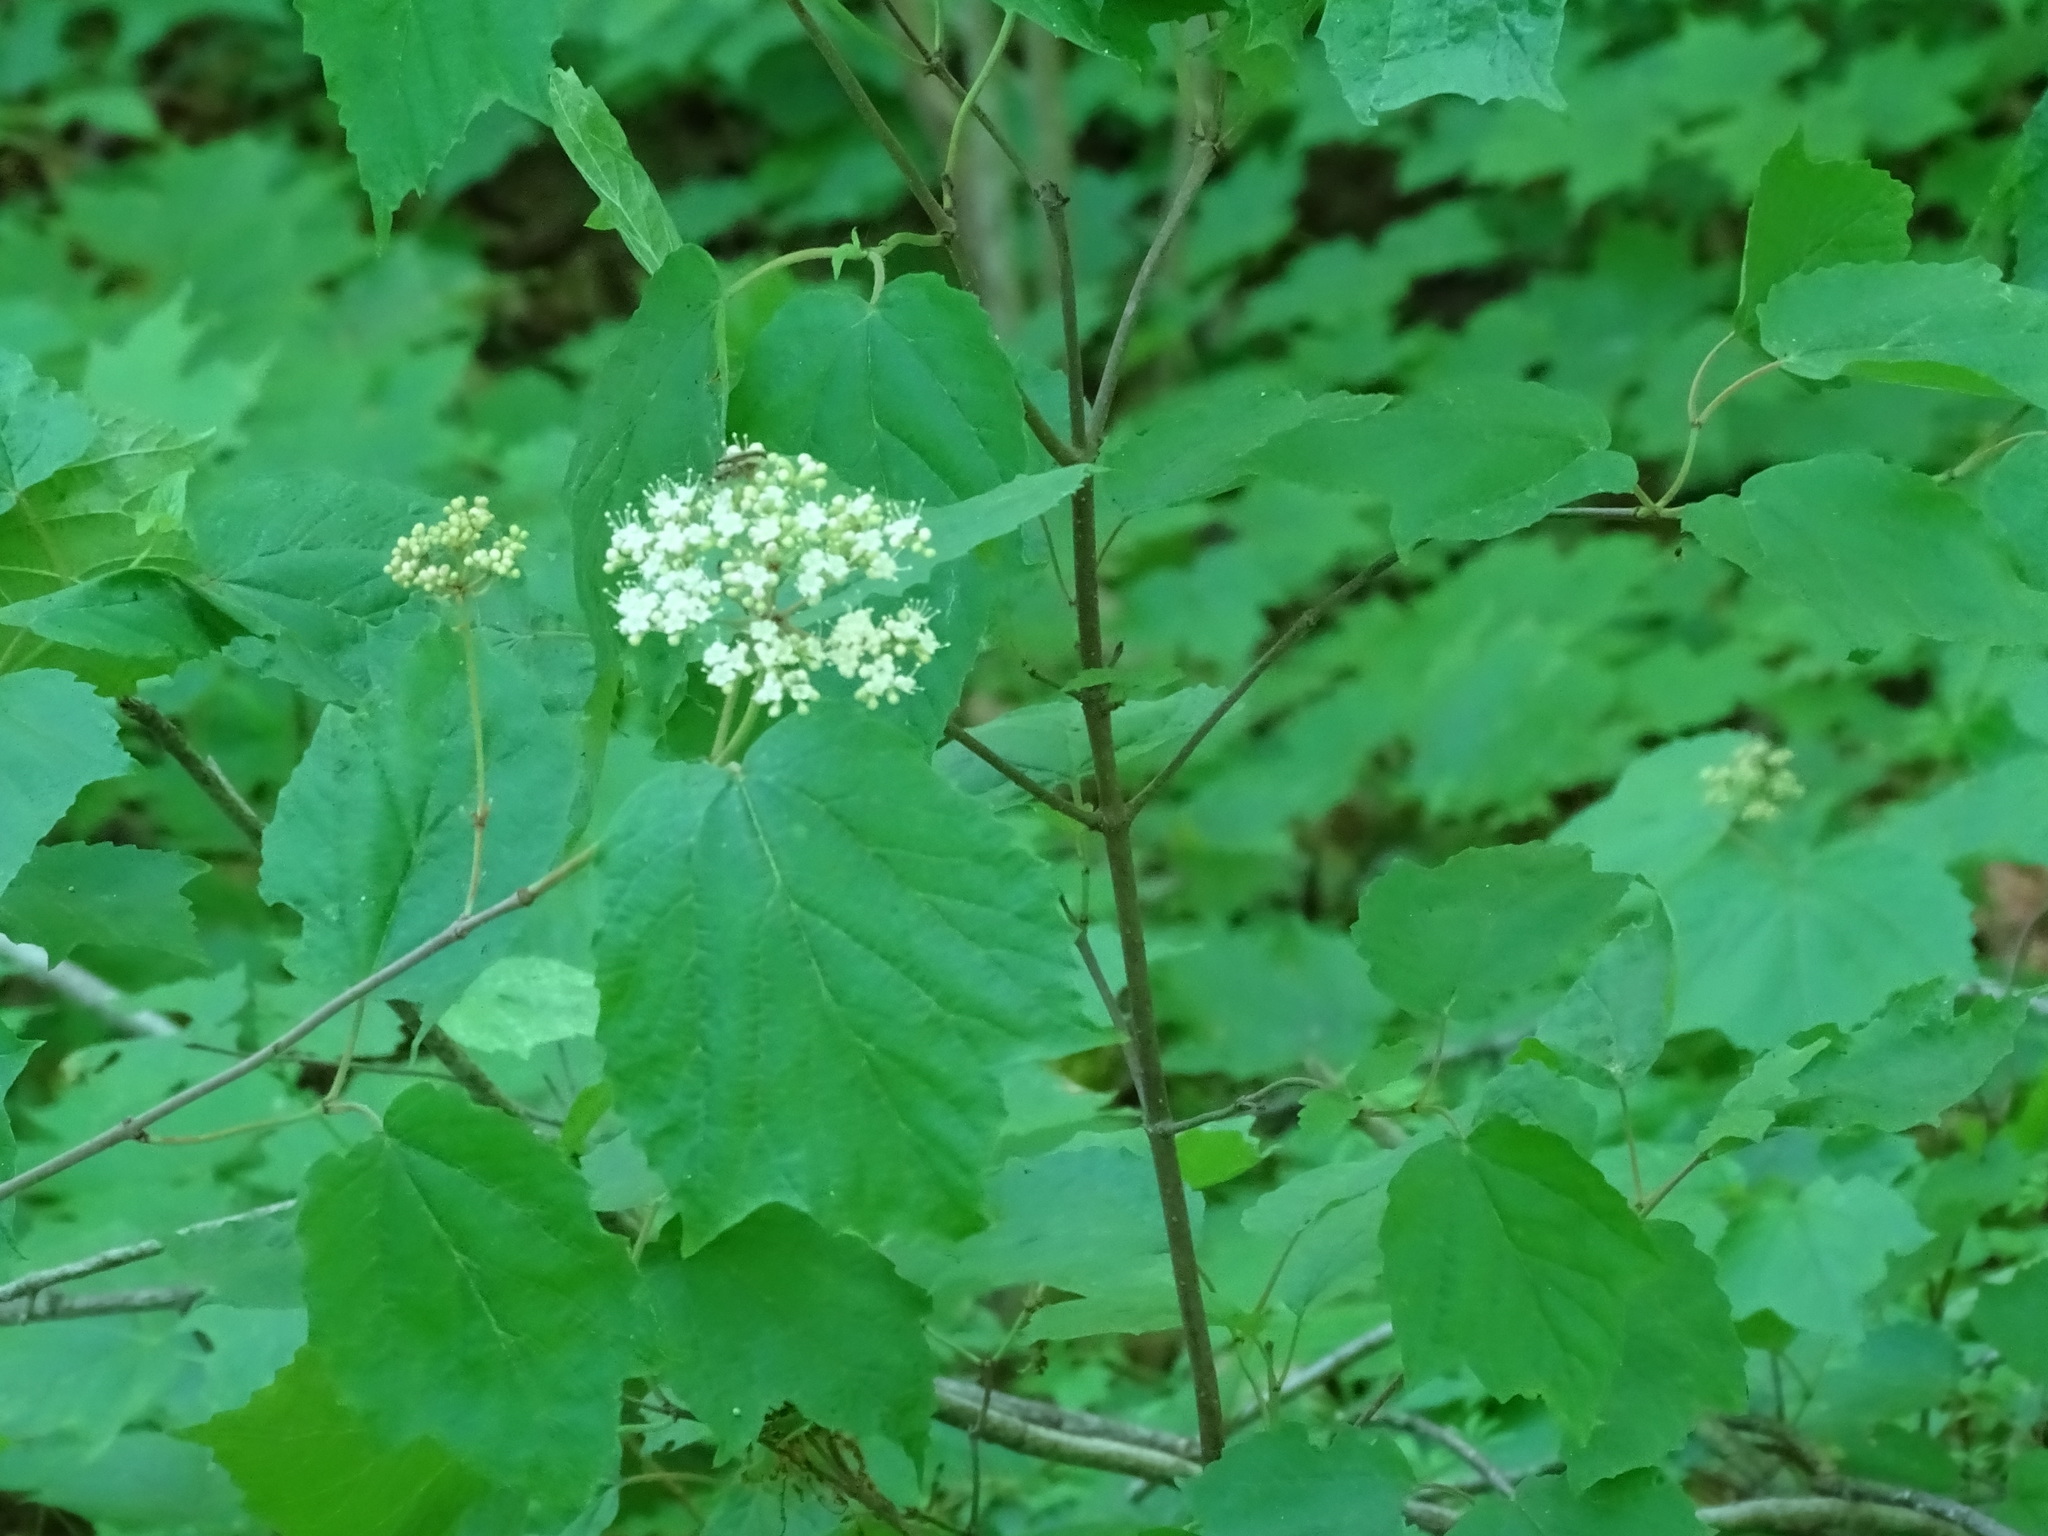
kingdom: Plantae
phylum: Tracheophyta
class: Magnoliopsida
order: Dipsacales
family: Viburnaceae
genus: Viburnum
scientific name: Viburnum acerifolium
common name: Dockmackie
